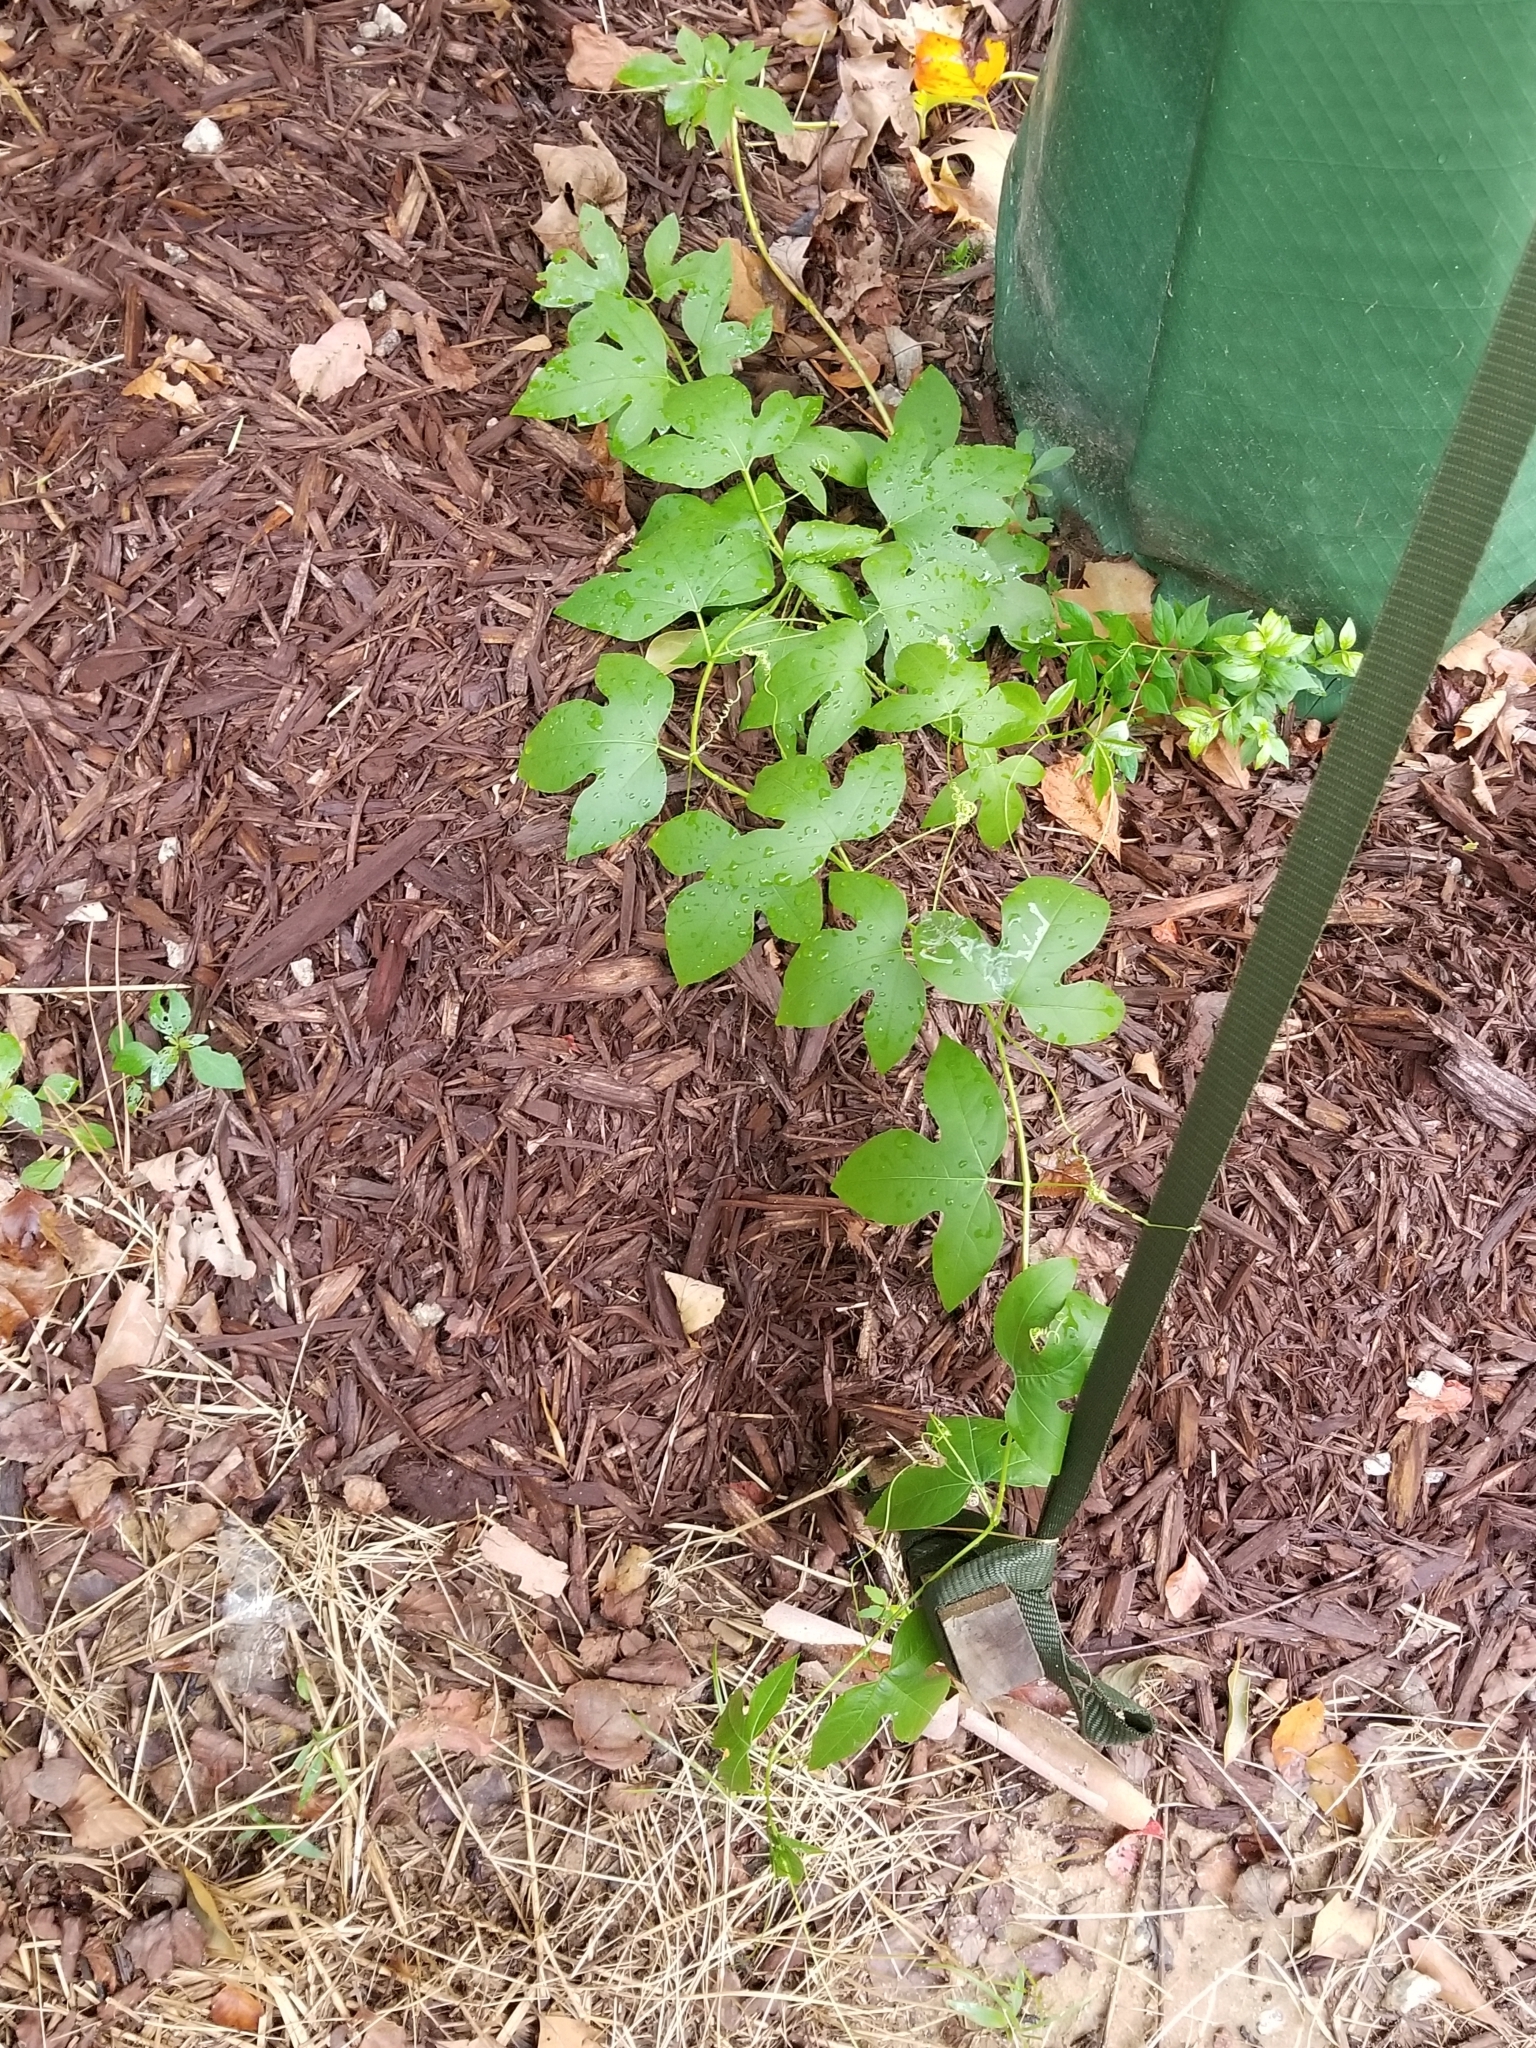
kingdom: Plantae
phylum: Tracheophyta
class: Magnoliopsida
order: Malpighiales
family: Passifloraceae
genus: Passiflora
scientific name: Passiflora incarnata
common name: Apricot-vine
